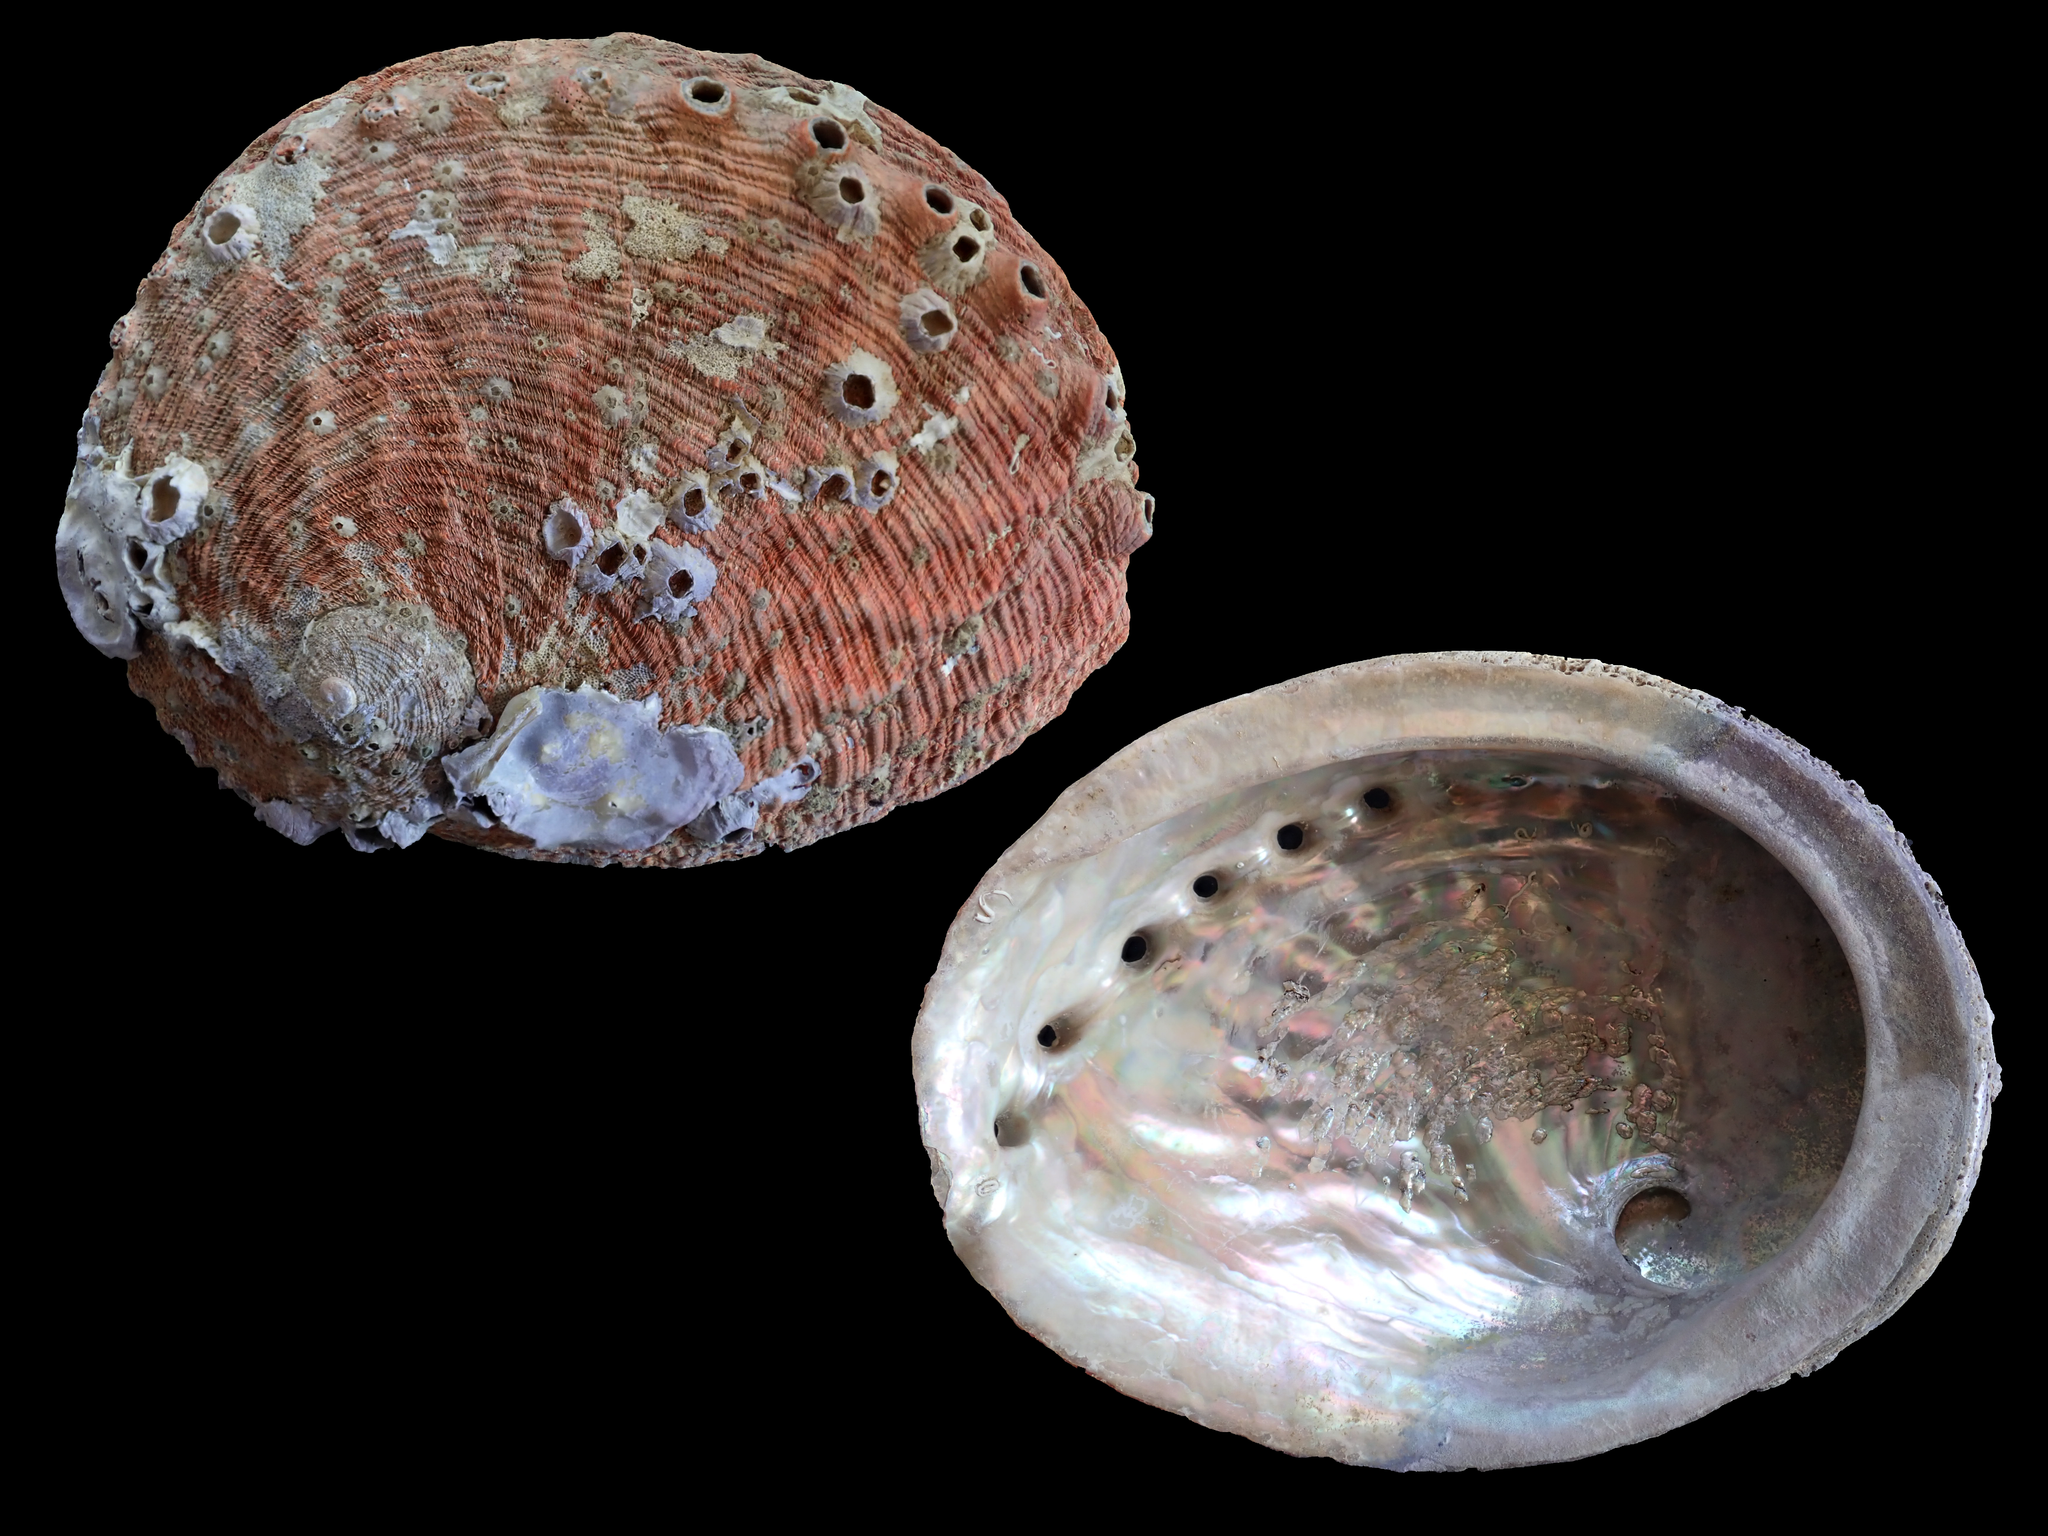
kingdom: Animalia
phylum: Mollusca
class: Gastropoda
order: Lepetellida
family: Haliotidae
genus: Haliotis
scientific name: Haliotis rubra
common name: Blacklip abalone
